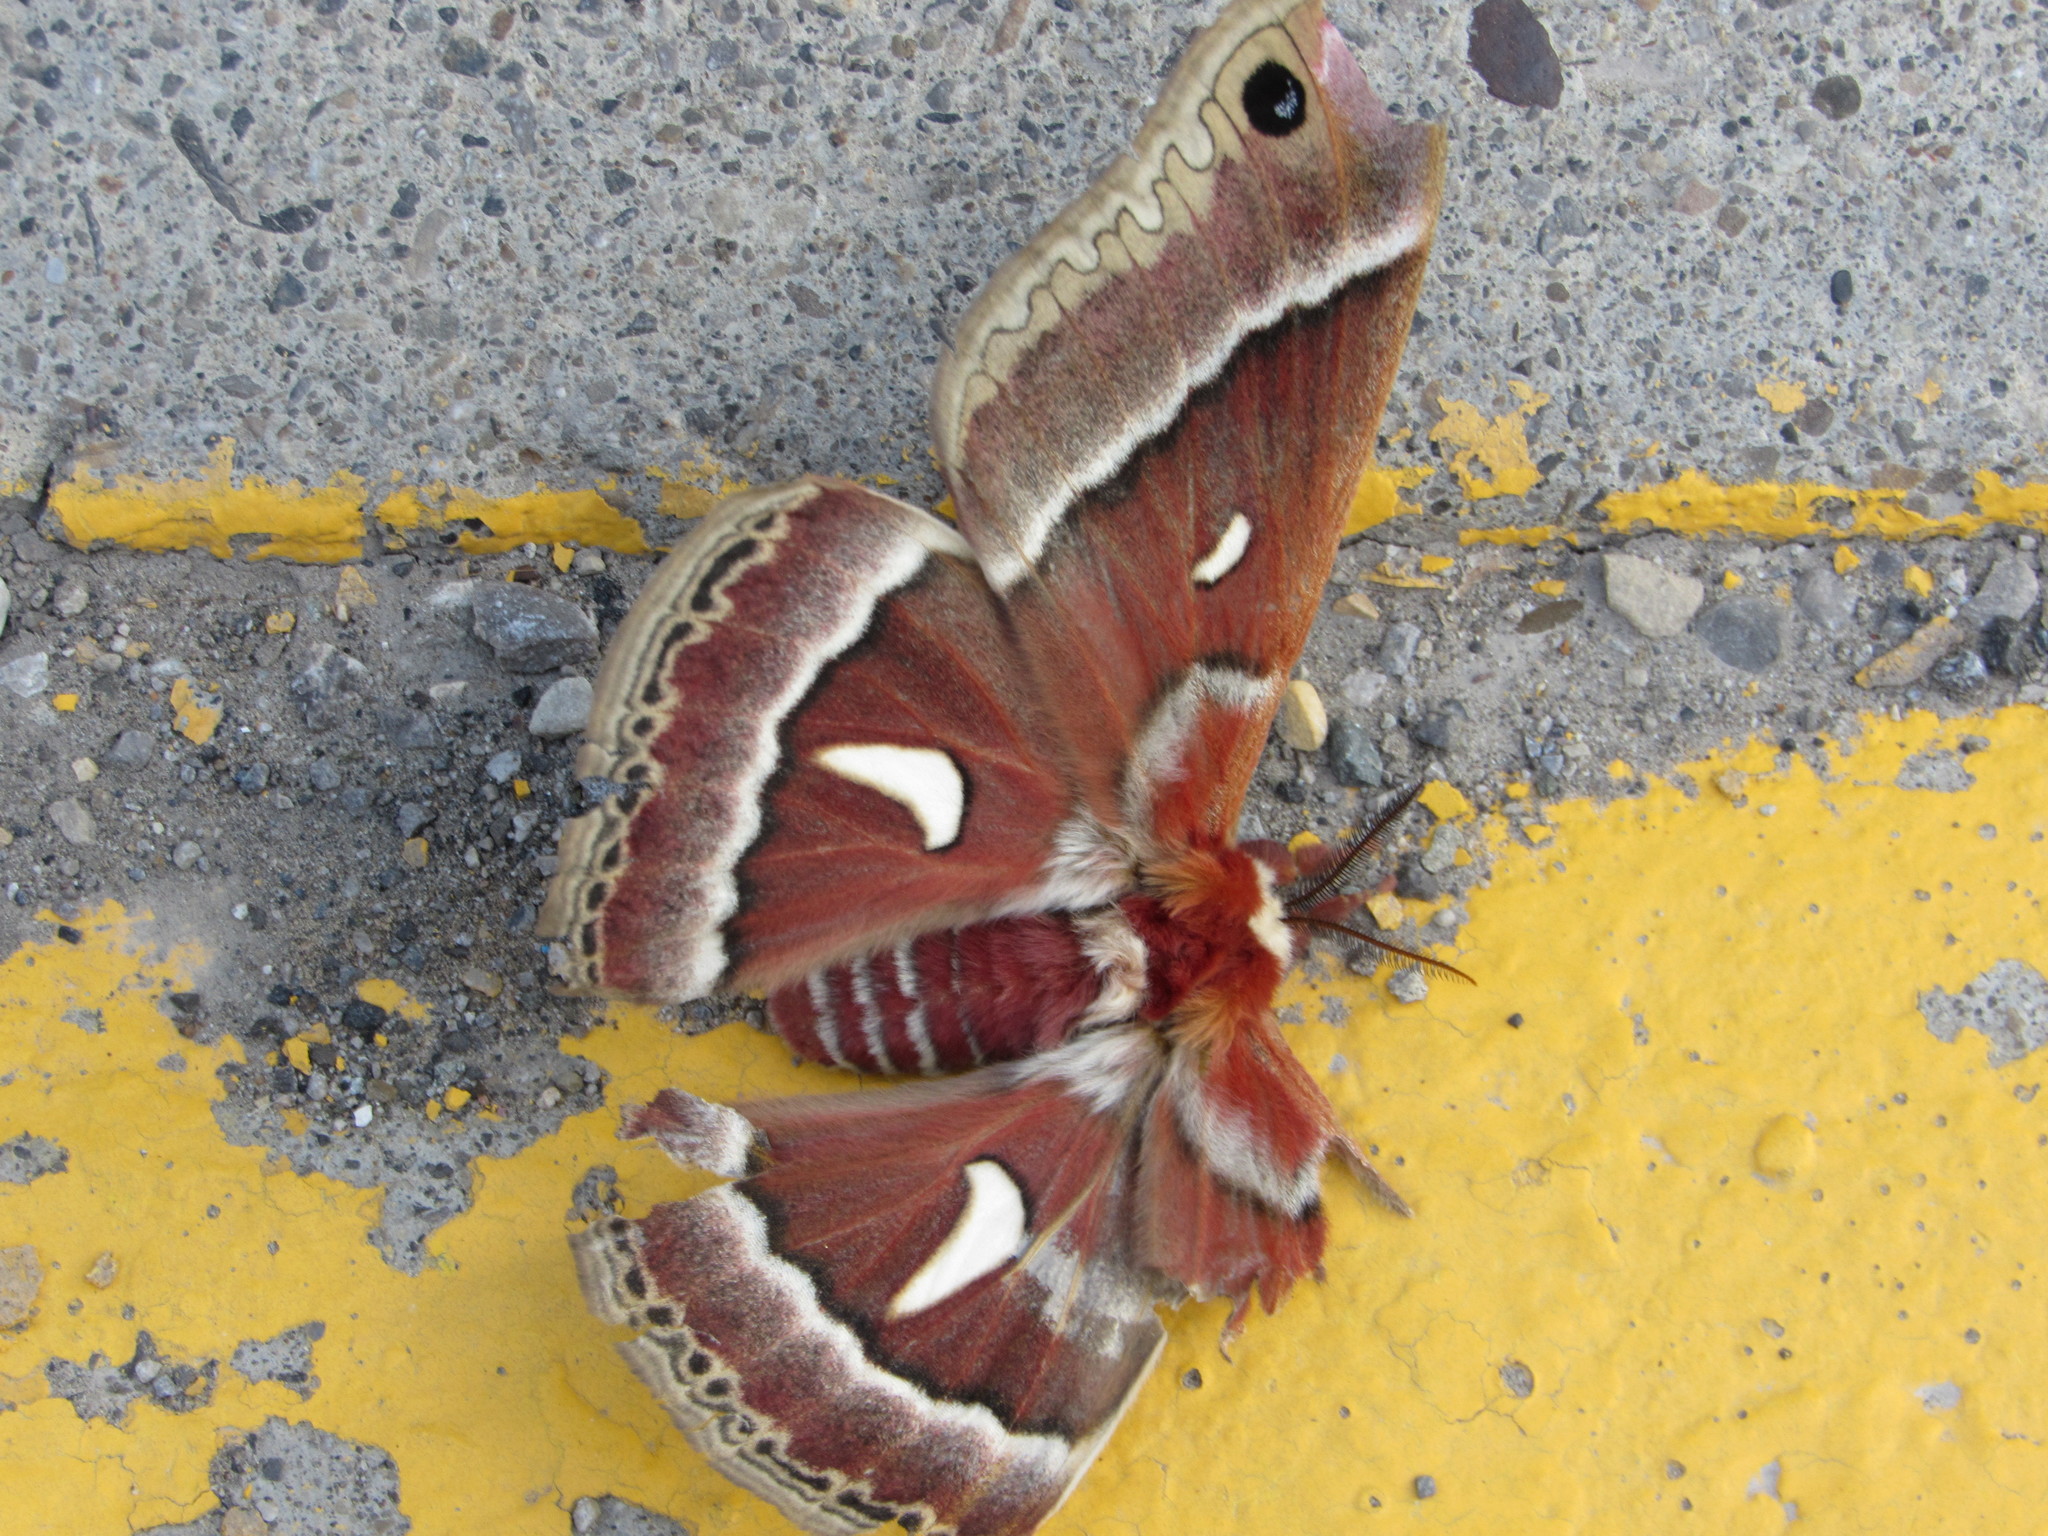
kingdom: Animalia
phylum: Arthropoda
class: Insecta
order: Lepidoptera
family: Saturniidae
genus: Hyalophora
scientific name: Hyalophora euryalus
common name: Ceanothus silkmoth
